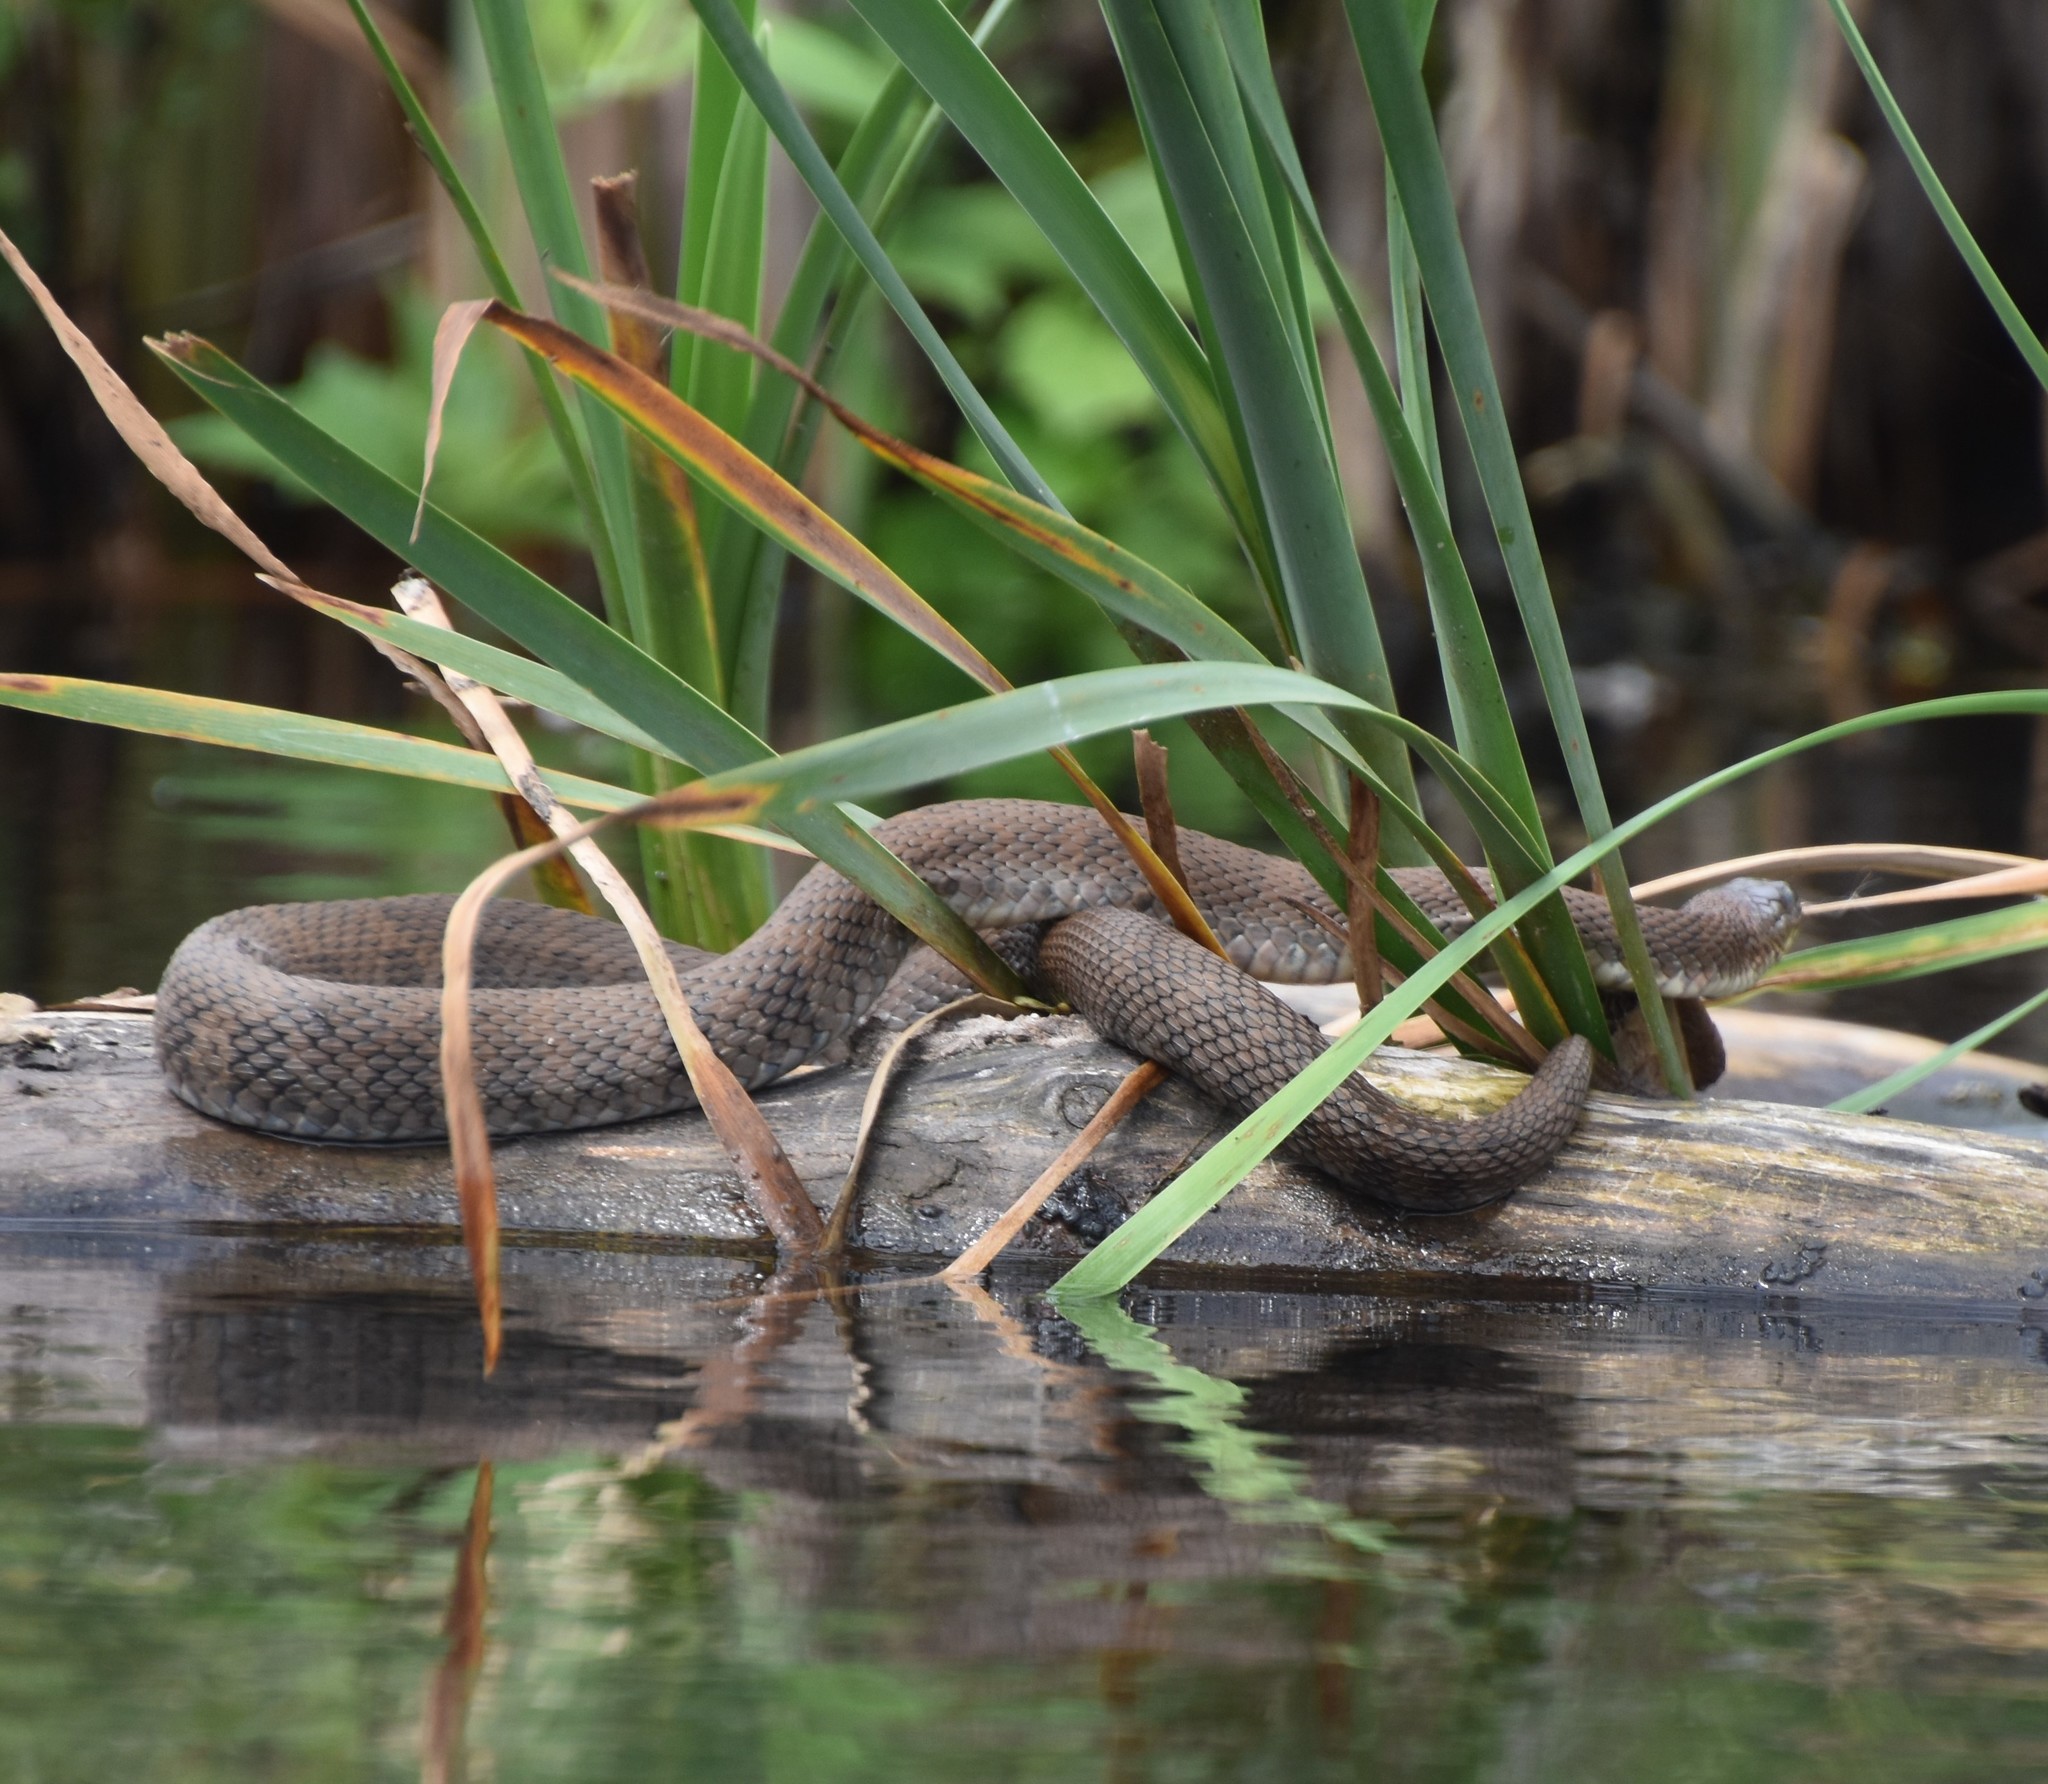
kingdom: Animalia
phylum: Chordata
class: Squamata
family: Colubridae
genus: Nerodia
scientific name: Nerodia sipedon
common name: Northern water snake
